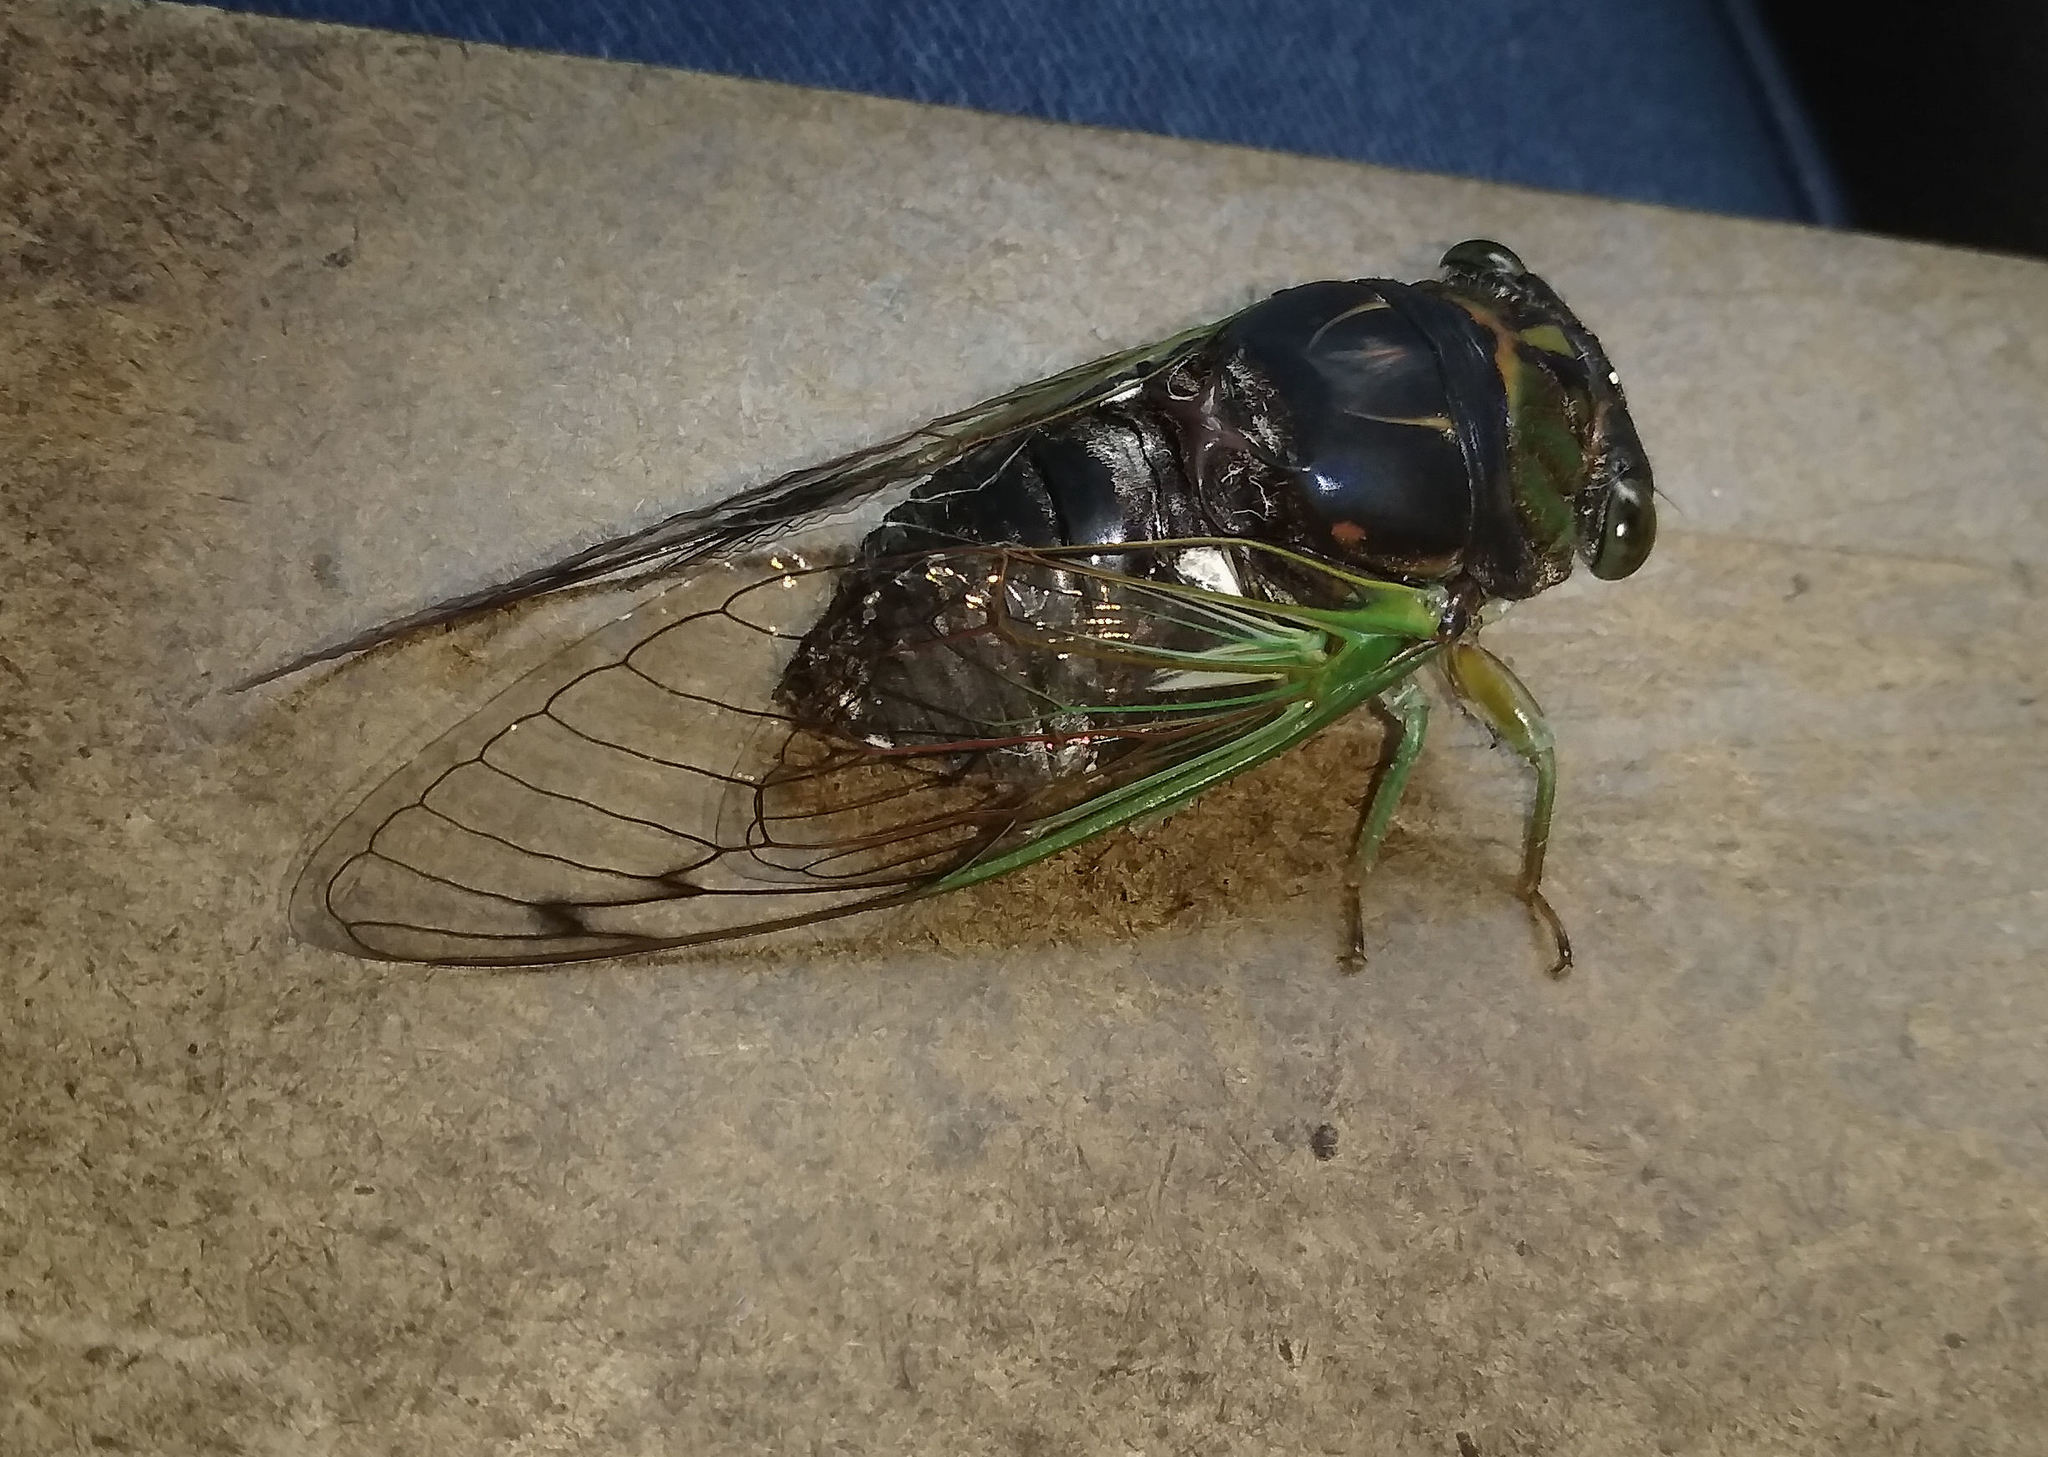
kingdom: Animalia
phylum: Arthropoda
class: Insecta
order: Hemiptera
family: Cicadidae
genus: Neotibicen
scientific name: Neotibicen tibicen
